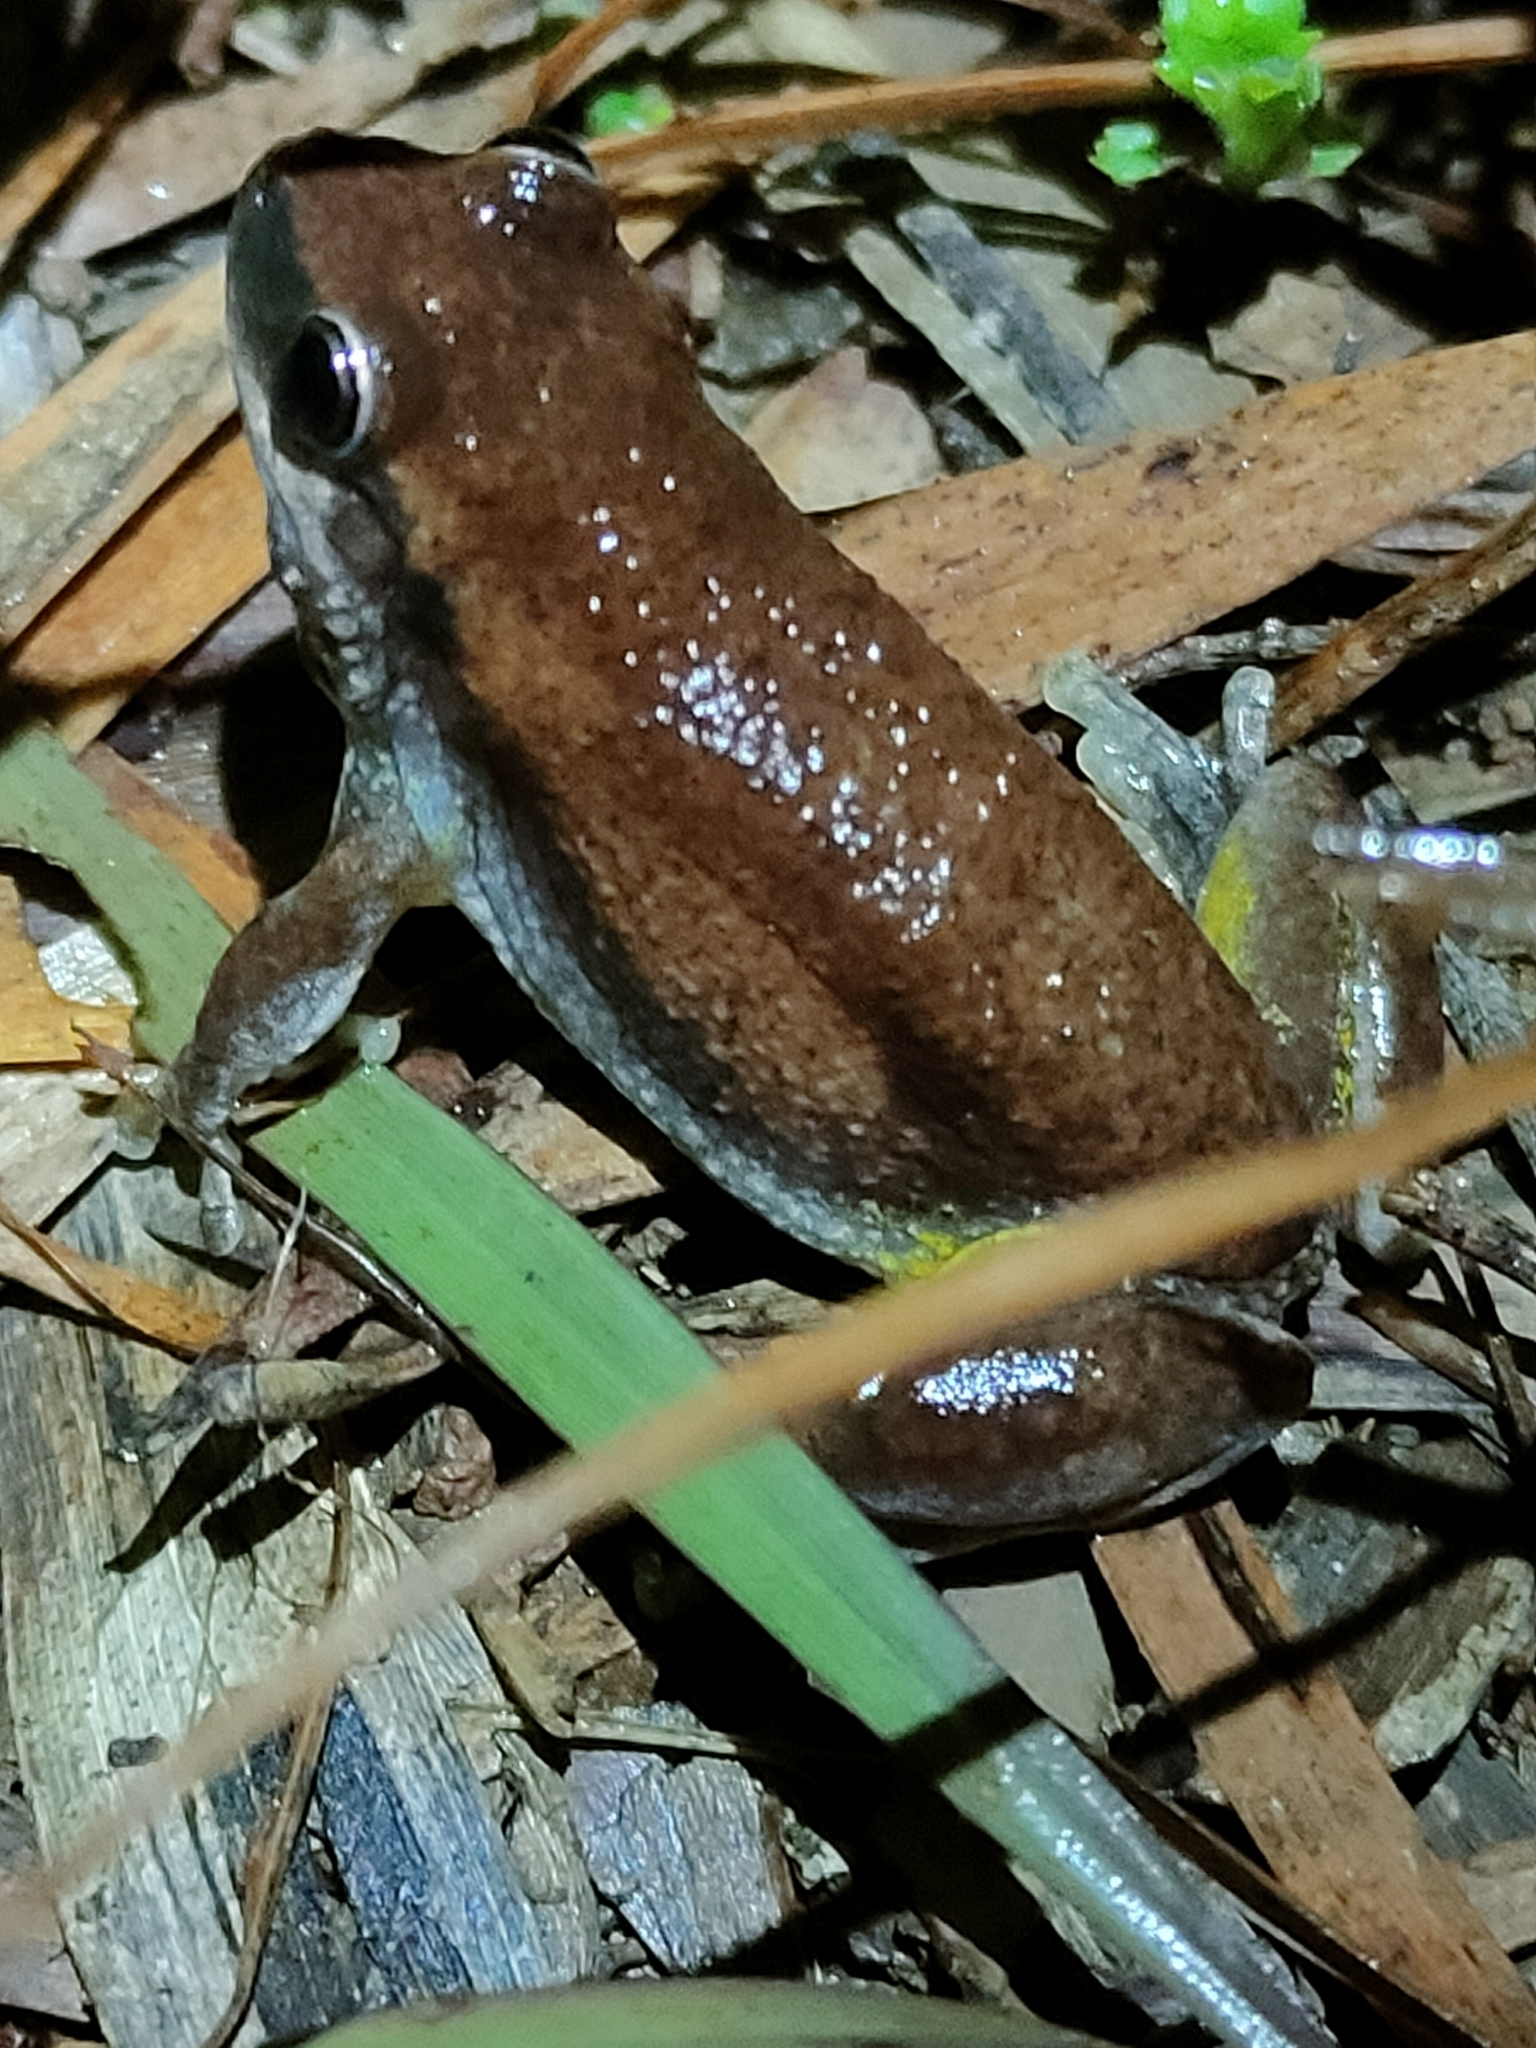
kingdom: Animalia
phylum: Chordata
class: Amphibia
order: Anura
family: Pelodryadidae
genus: Litoria
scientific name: Litoria rubella
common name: Desert tree frog
